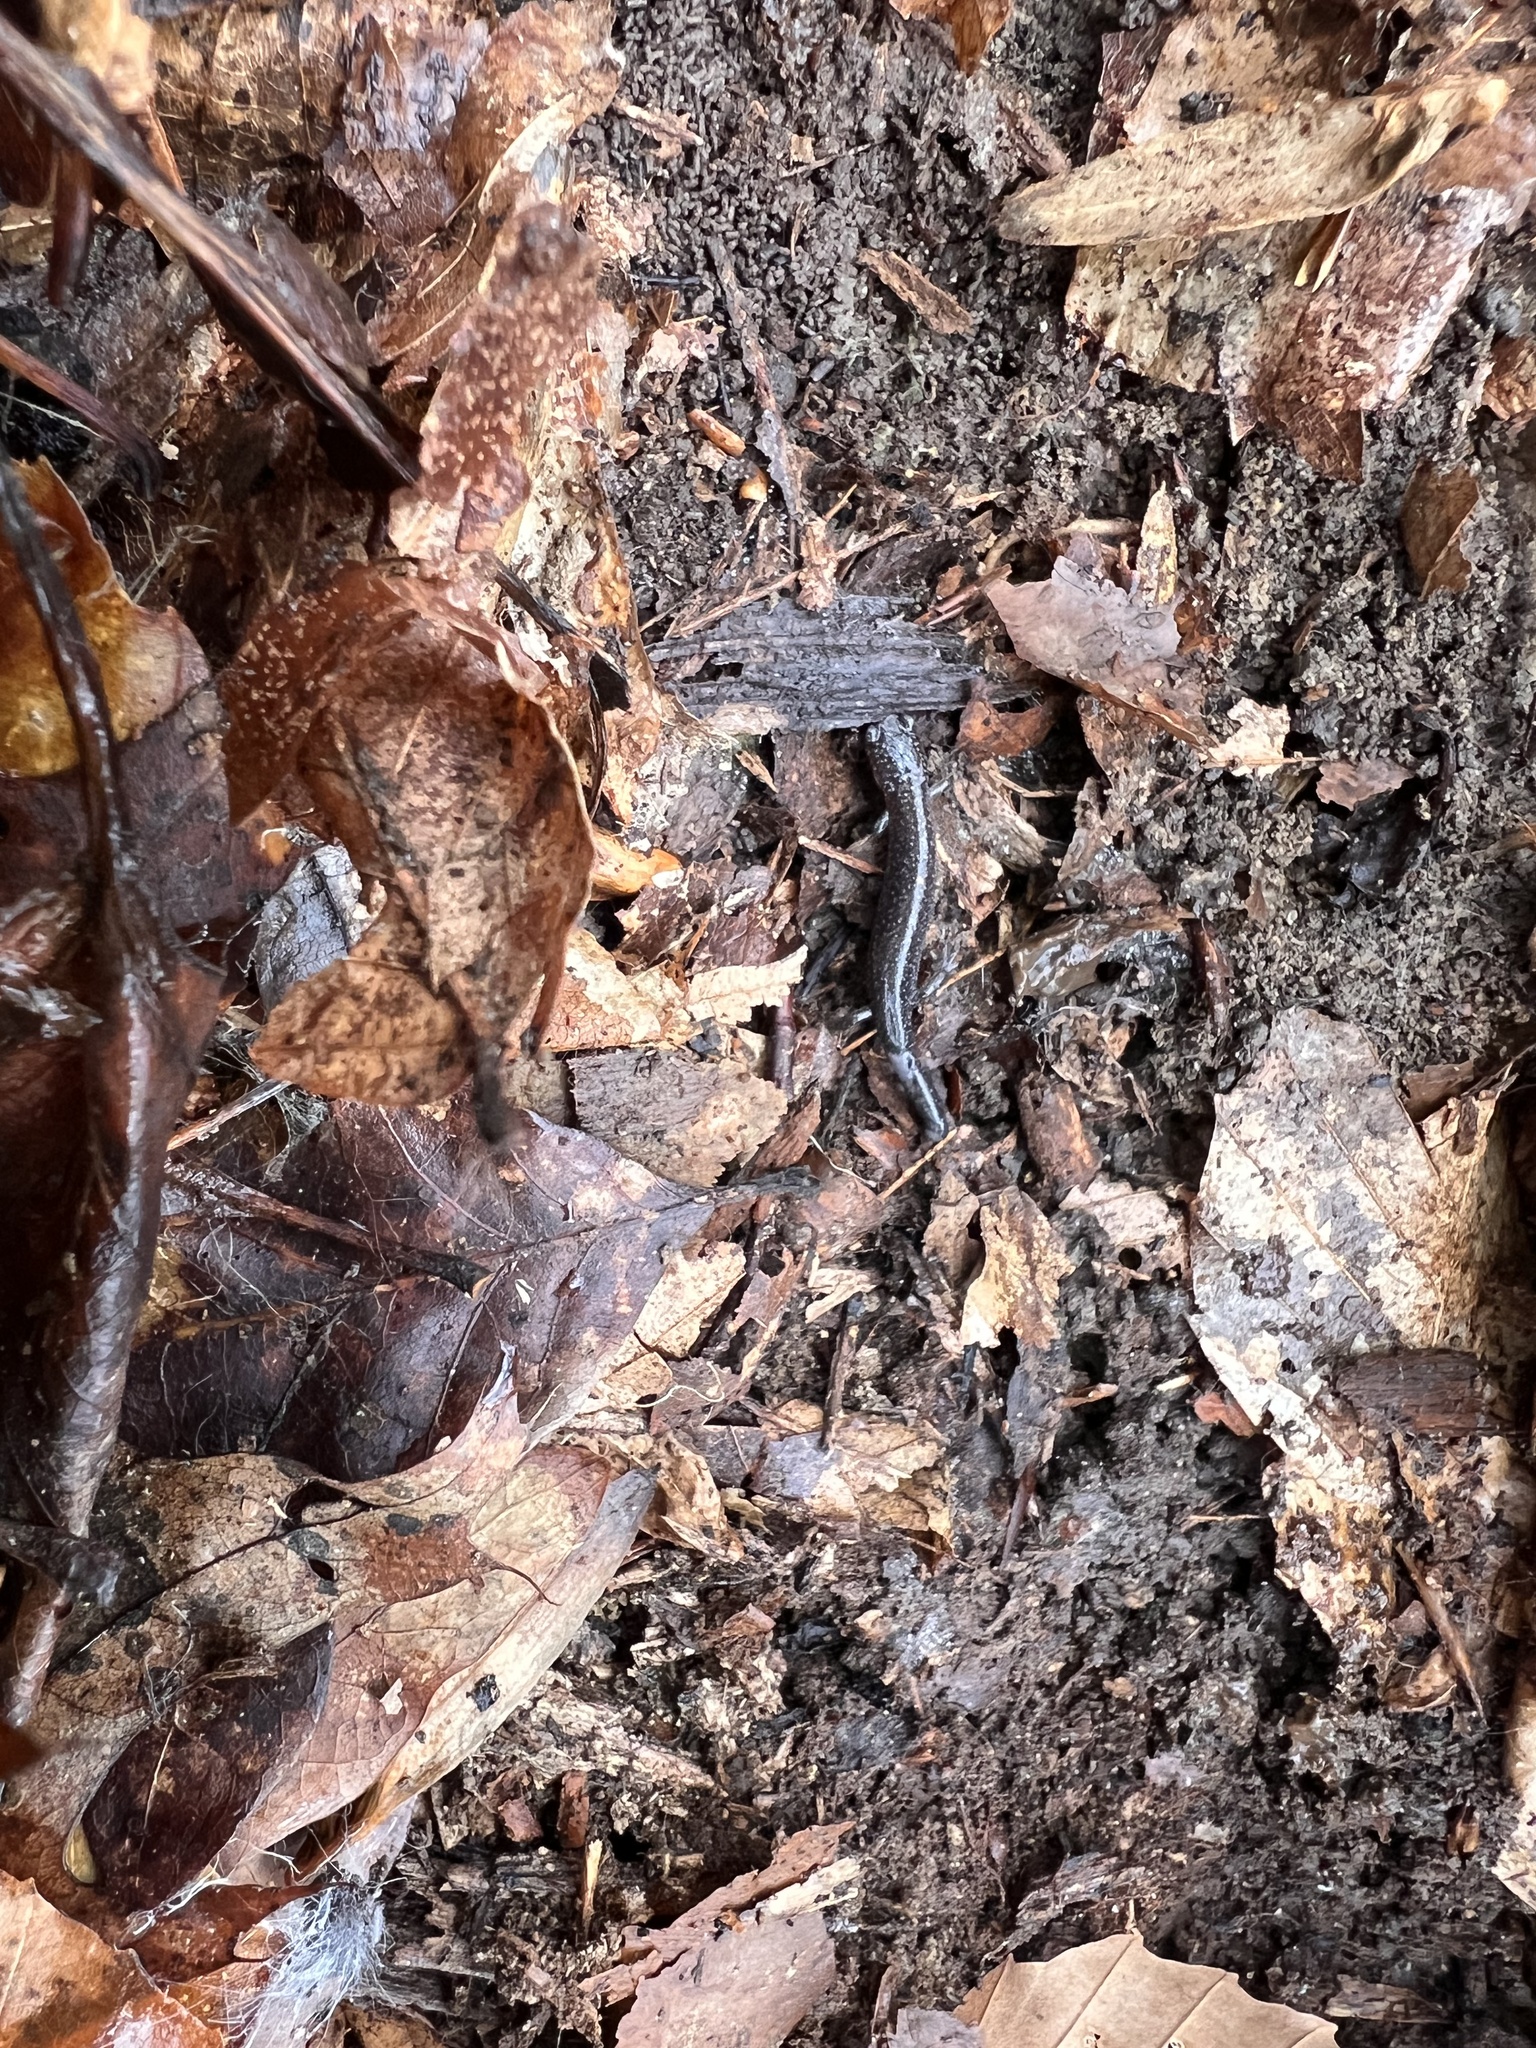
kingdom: Animalia
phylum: Chordata
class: Amphibia
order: Caudata
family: Plethodontidae
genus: Plethodon
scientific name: Plethodon cinereus
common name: Redback salamander
